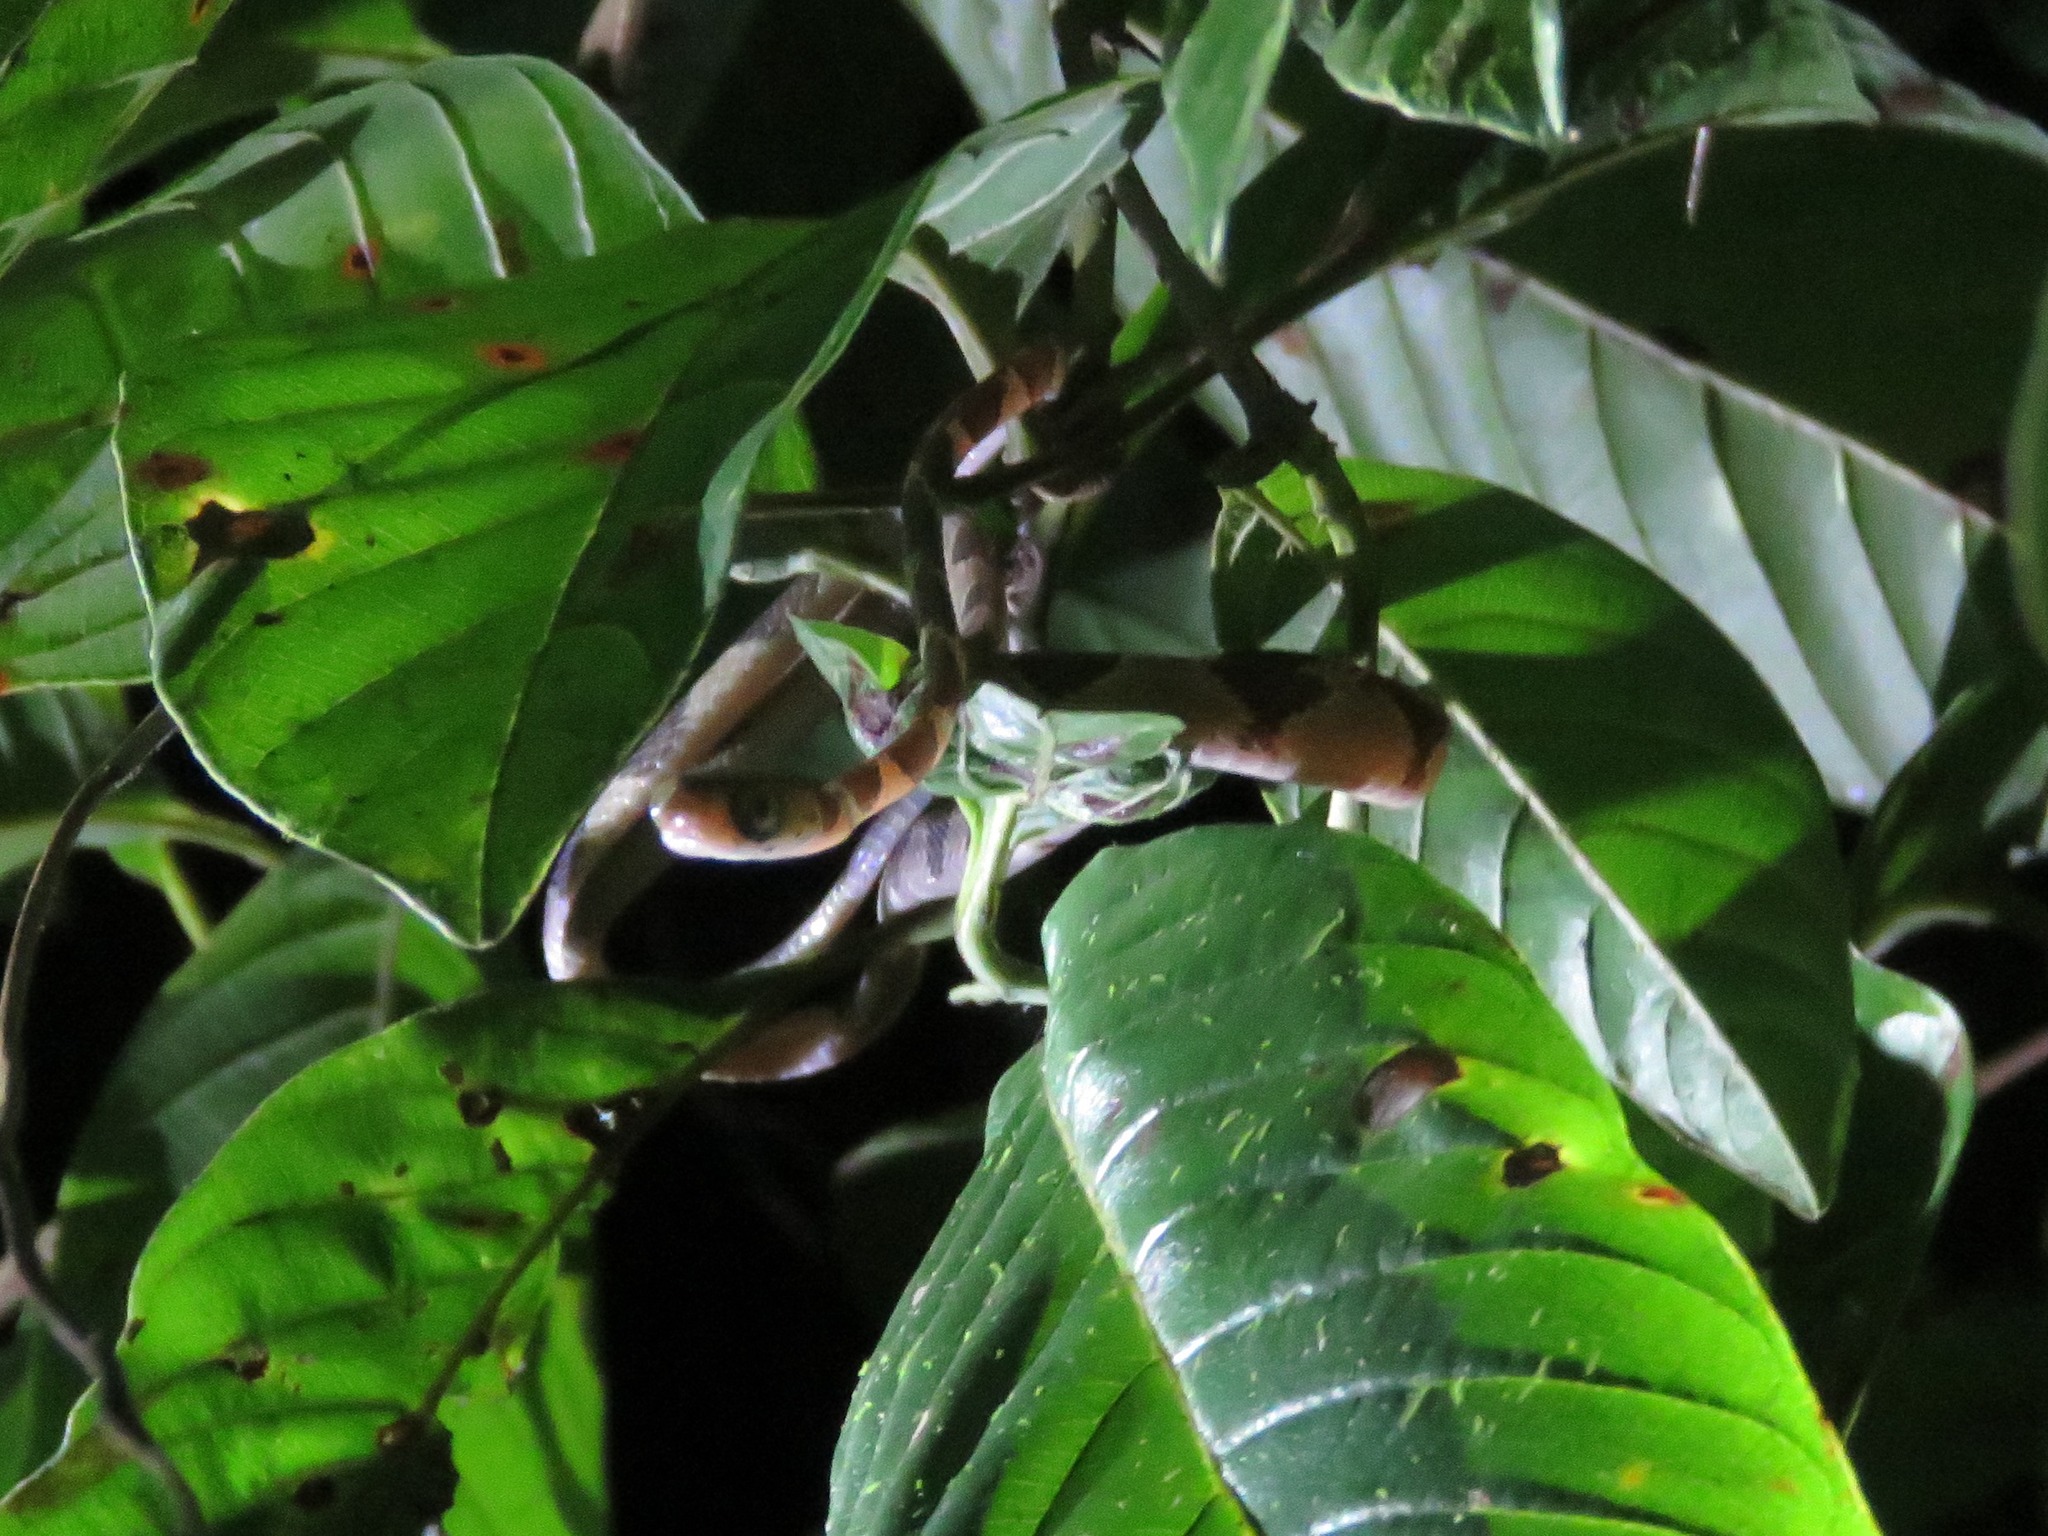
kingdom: Animalia
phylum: Chordata
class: Squamata
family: Colubridae
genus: Imantodes
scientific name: Imantodes cenchoa
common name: Blunthead tree snake
